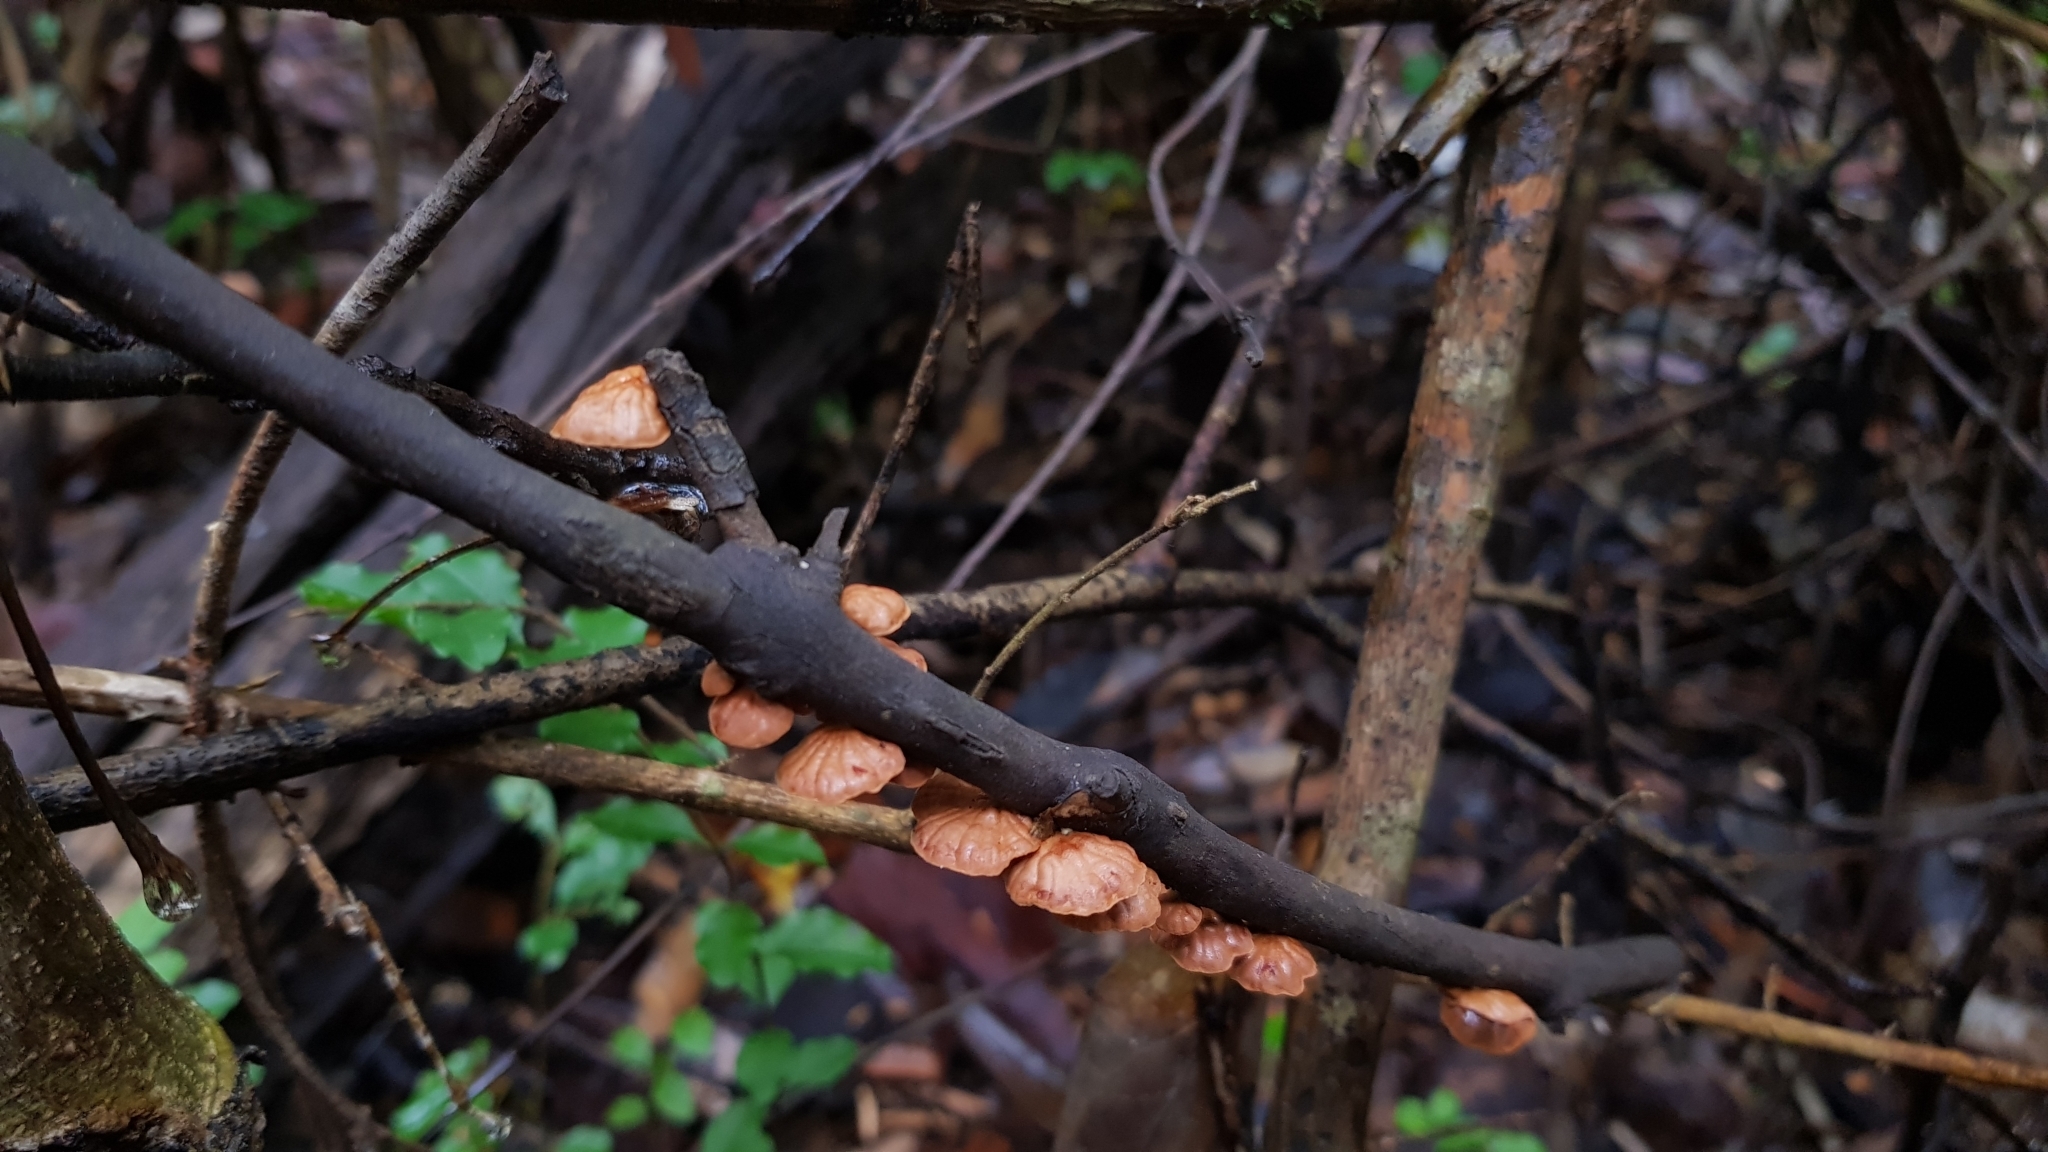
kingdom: Fungi
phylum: Basidiomycota
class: Agaricomycetes
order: Agaricales
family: Omphalotaceae
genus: Anthracophyllum
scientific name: Anthracophyllum archeri
